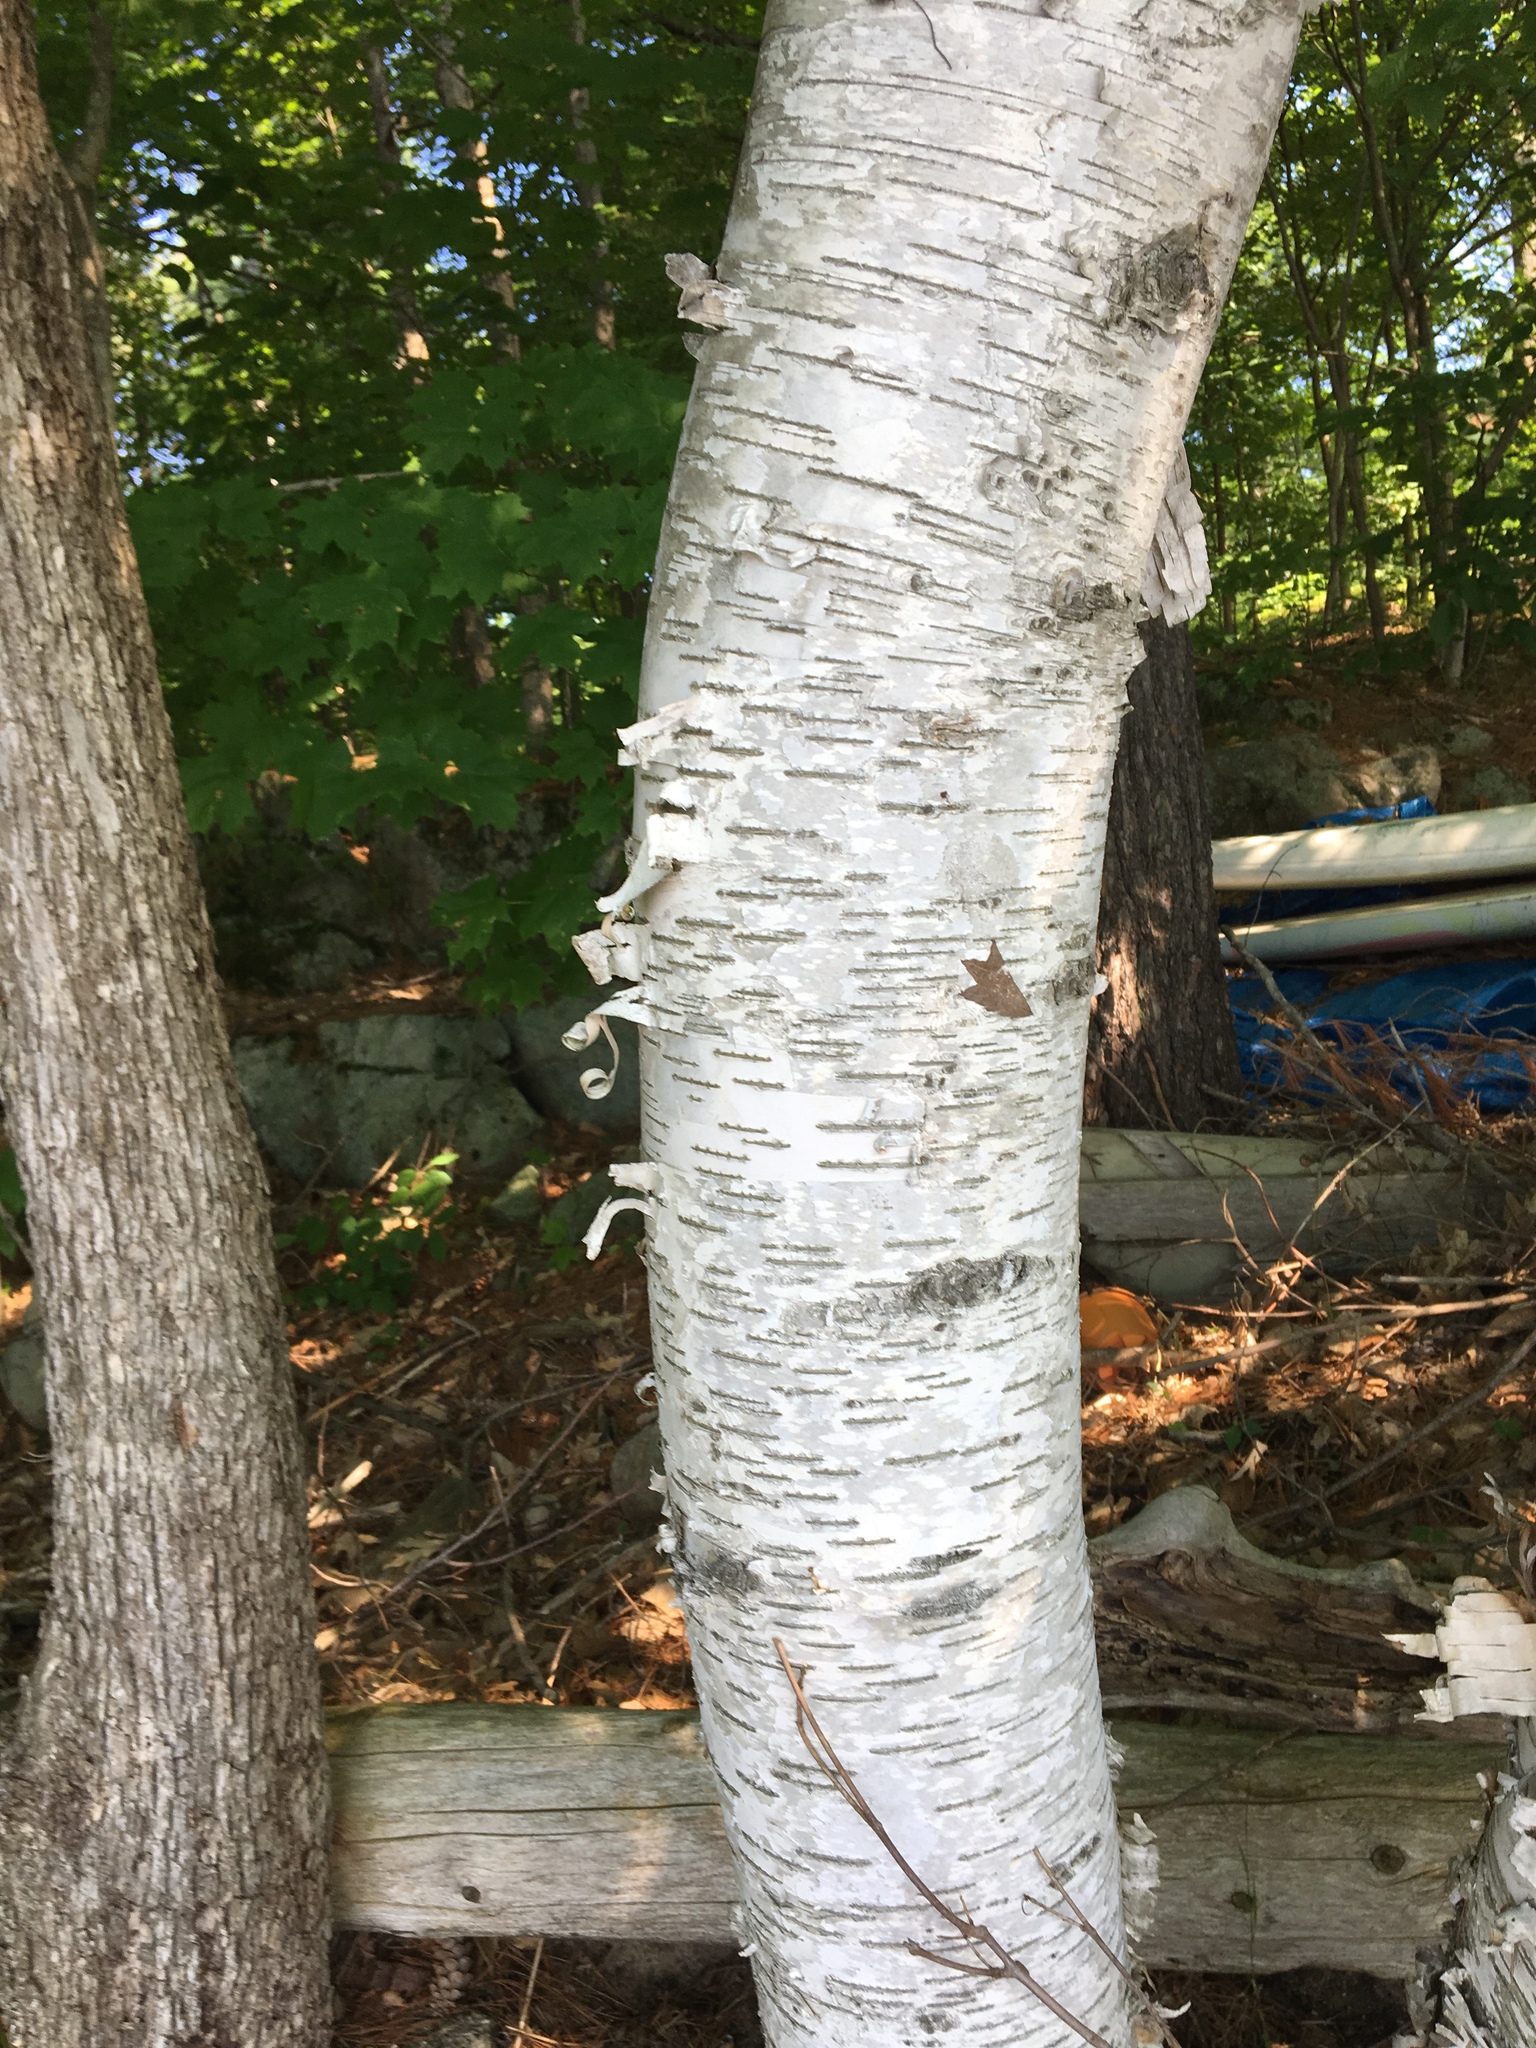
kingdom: Plantae
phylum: Tracheophyta
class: Magnoliopsida
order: Fagales
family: Betulaceae
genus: Betula
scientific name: Betula papyrifera
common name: Paper birch
